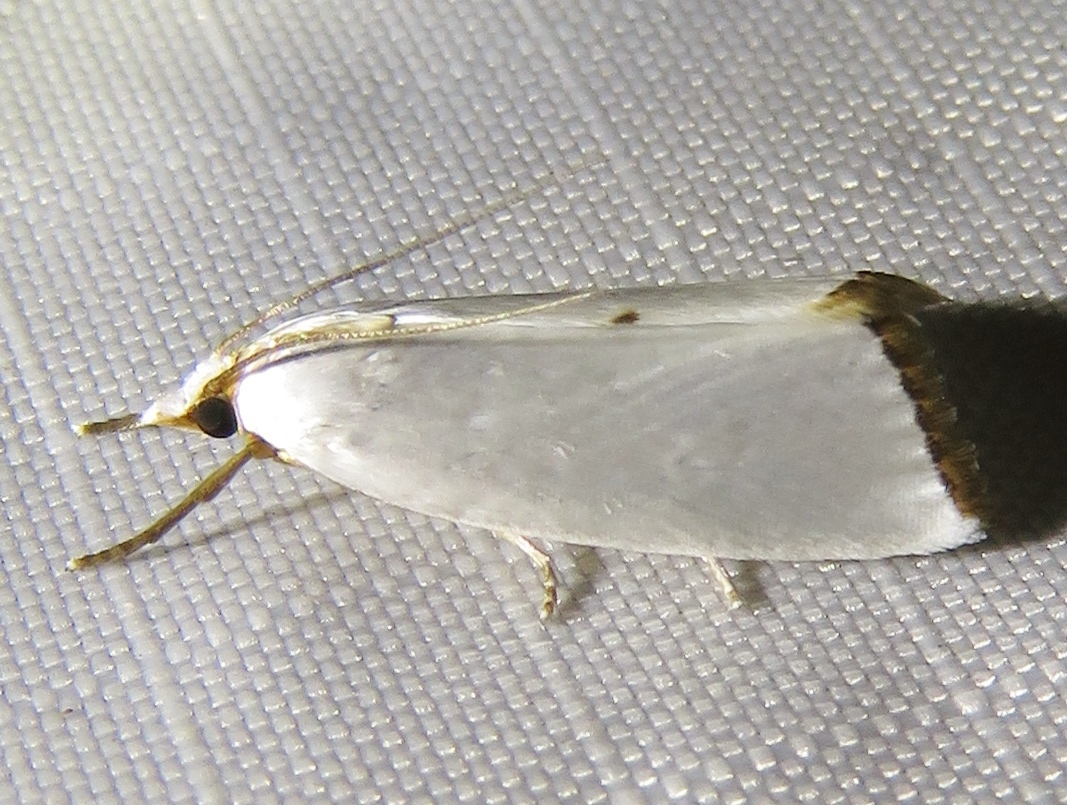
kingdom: Animalia
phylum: Arthropoda
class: Insecta
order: Lepidoptera
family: Crambidae
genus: Argyria
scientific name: Argyria nivalis
